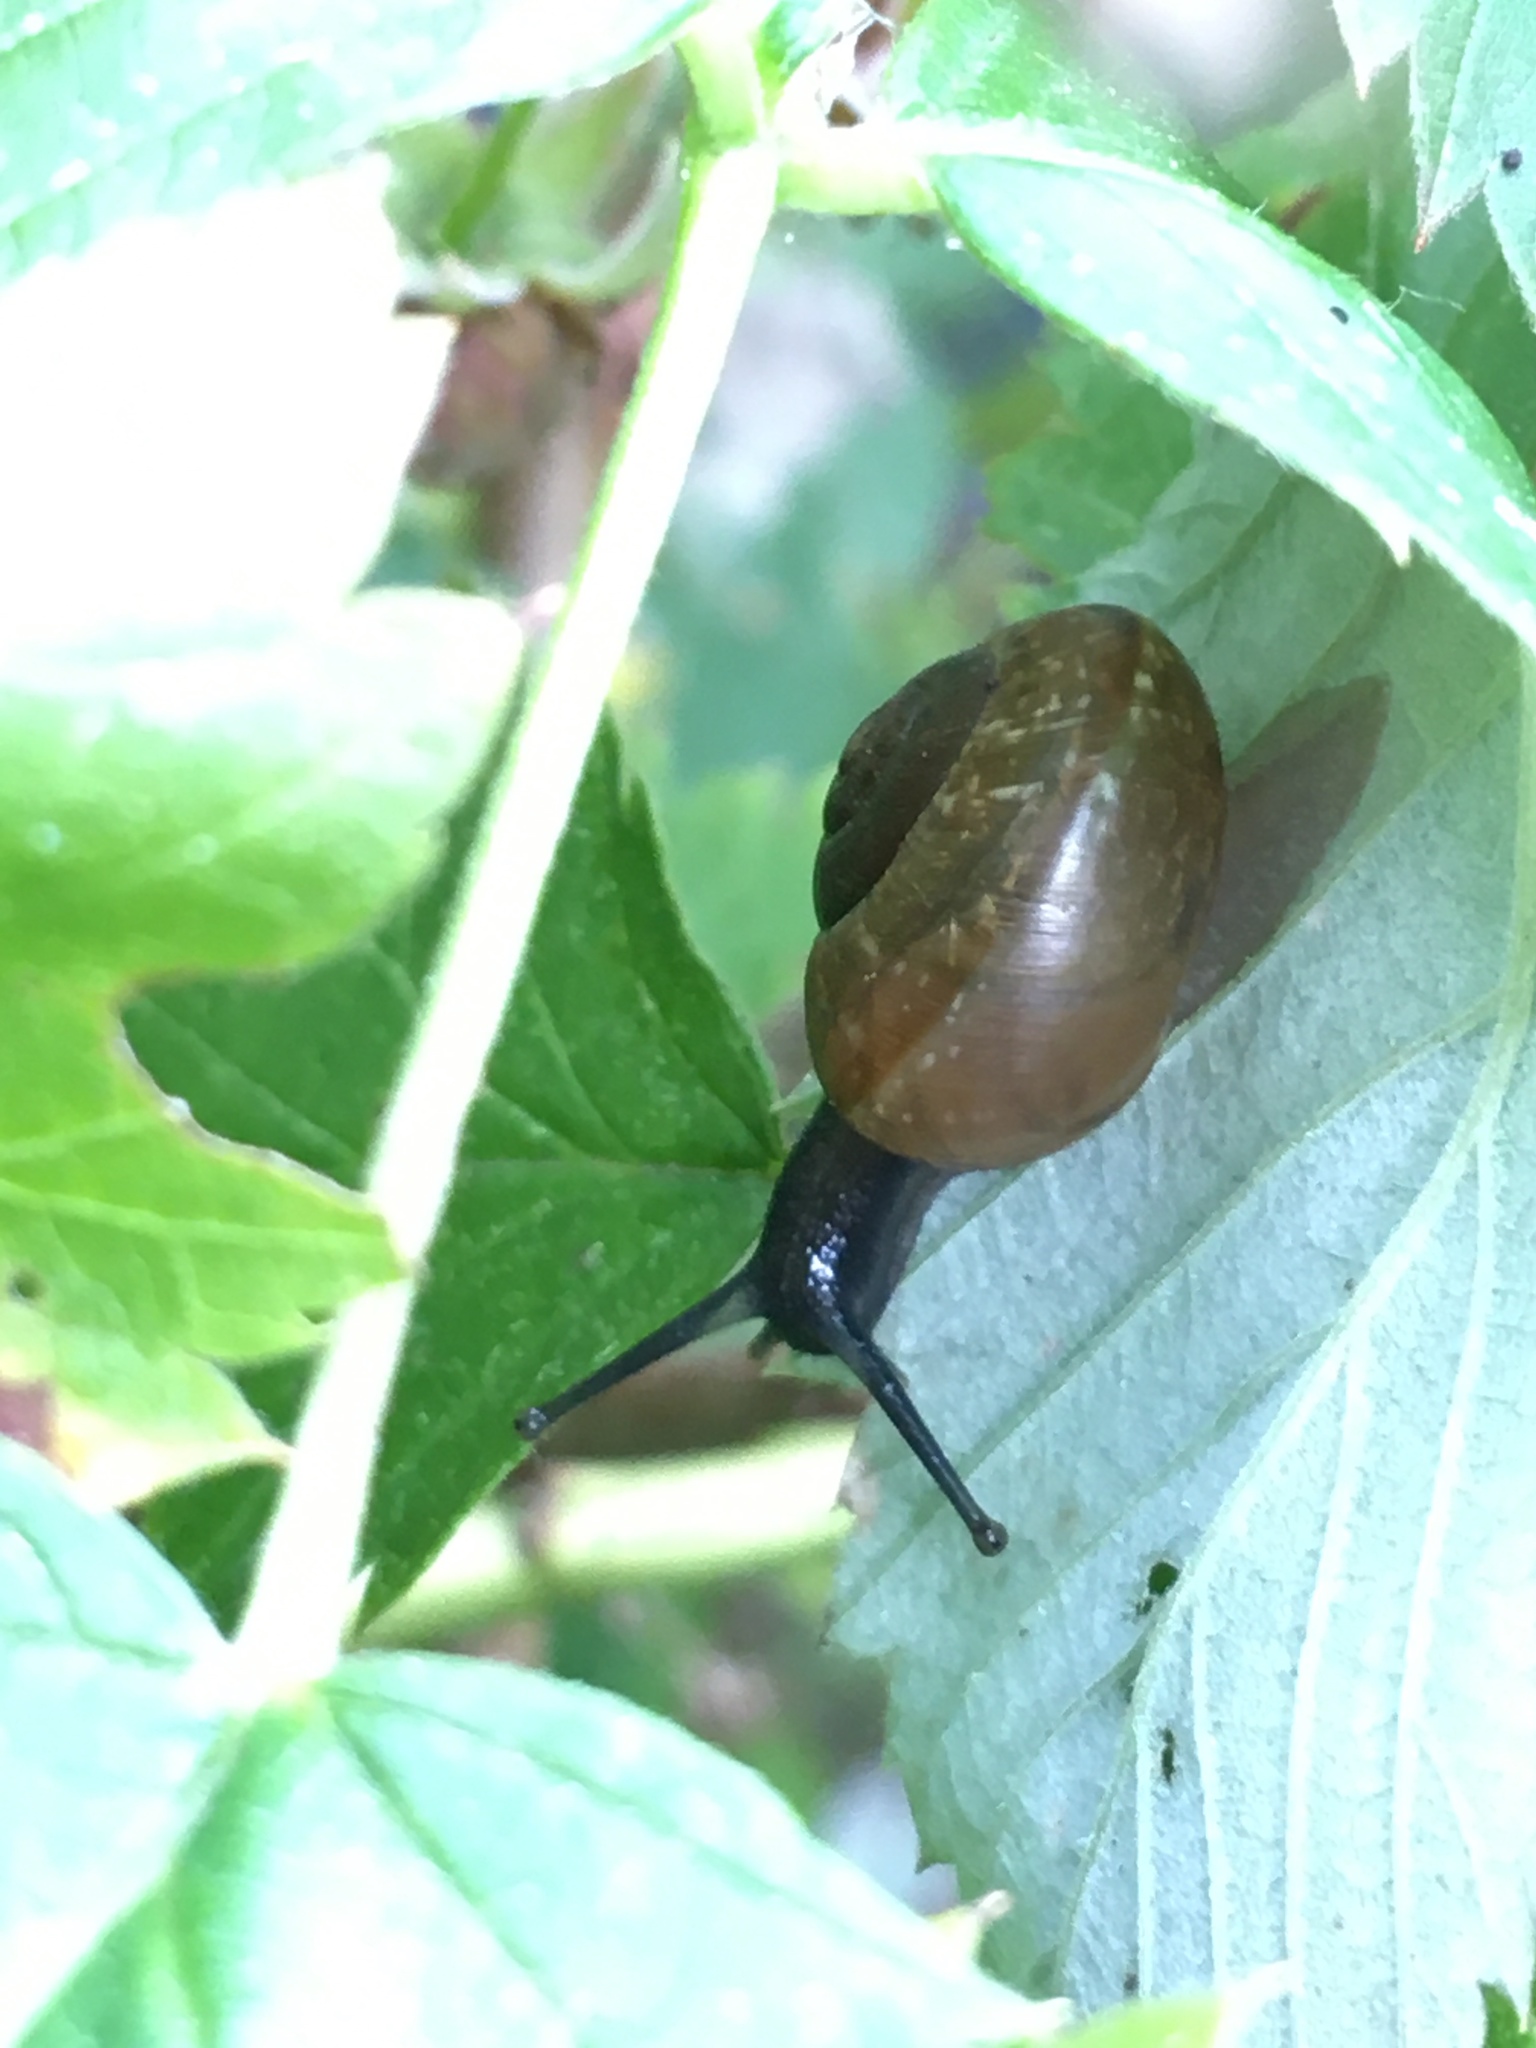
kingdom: Animalia
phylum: Mollusca
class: Gastropoda
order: Stylommatophora
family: Helicidae
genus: Arianta
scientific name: Arianta arbustorum
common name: Copse snail
